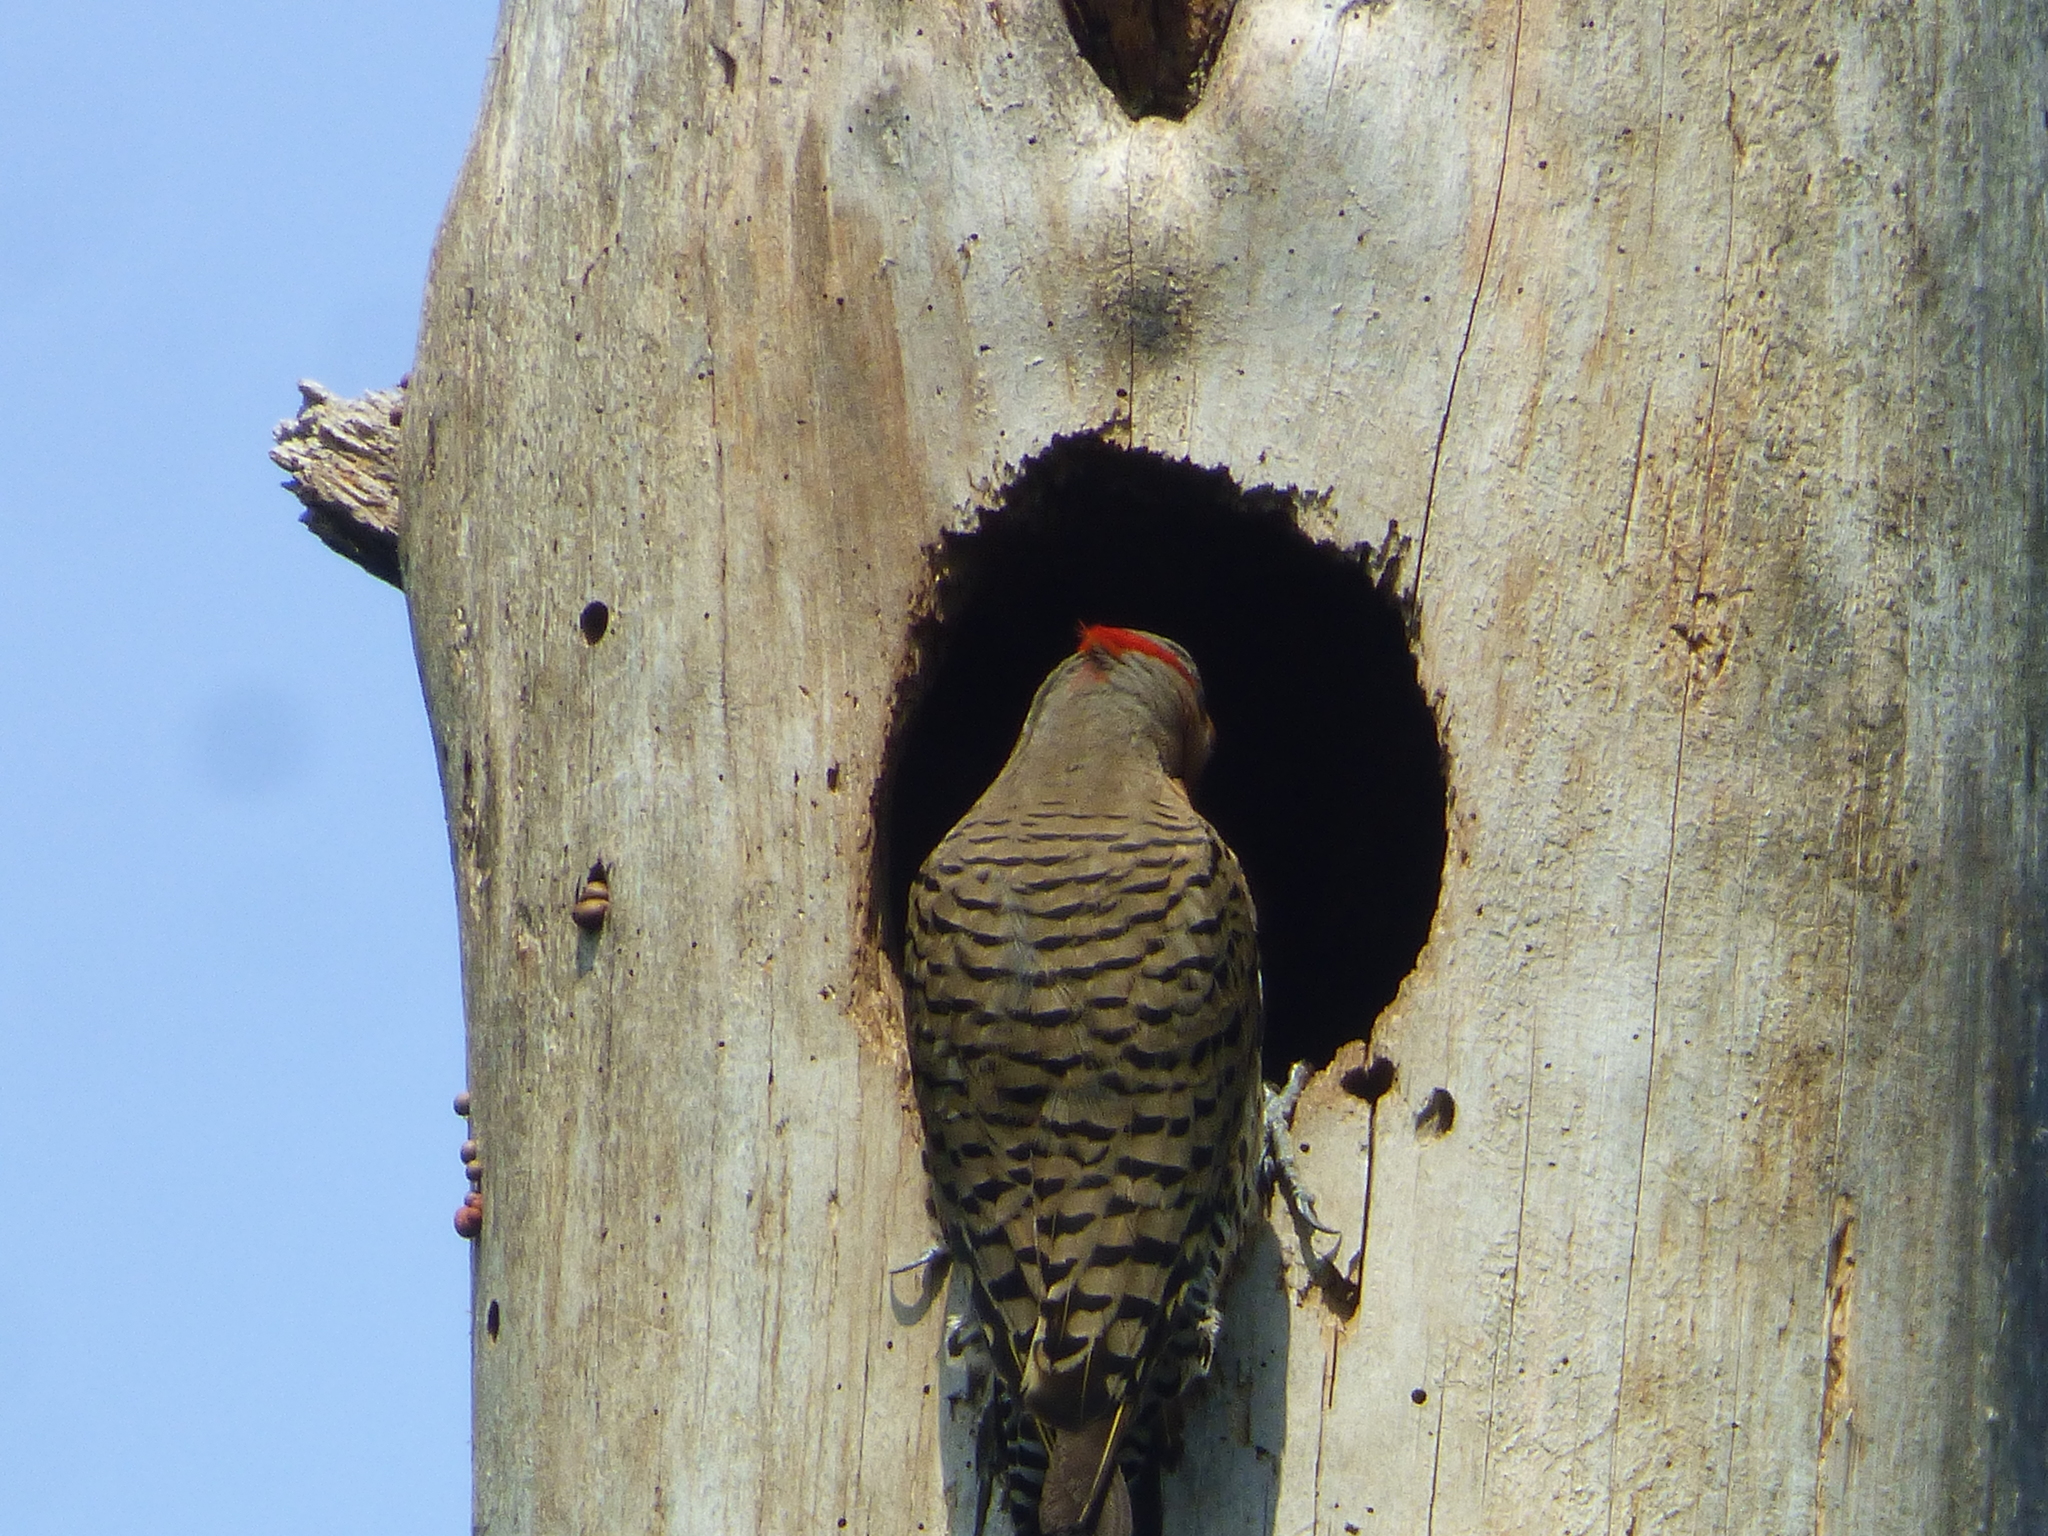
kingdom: Animalia
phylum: Chordata
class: Aves
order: Piciformes
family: Picidae
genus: Colaptes
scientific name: Colaptes auratus
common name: Northern flicker
